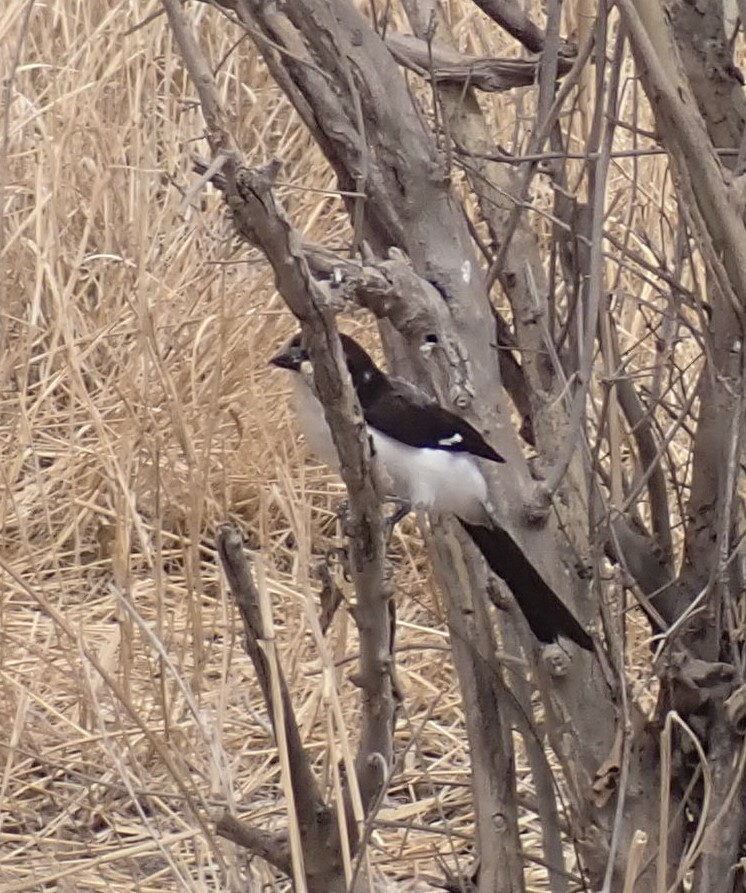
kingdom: Animalia
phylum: Chordata
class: Aves
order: Passeriformes
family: Laniidae
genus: Lanius
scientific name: Lanius cabanisi
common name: Long-tailed fiscal
